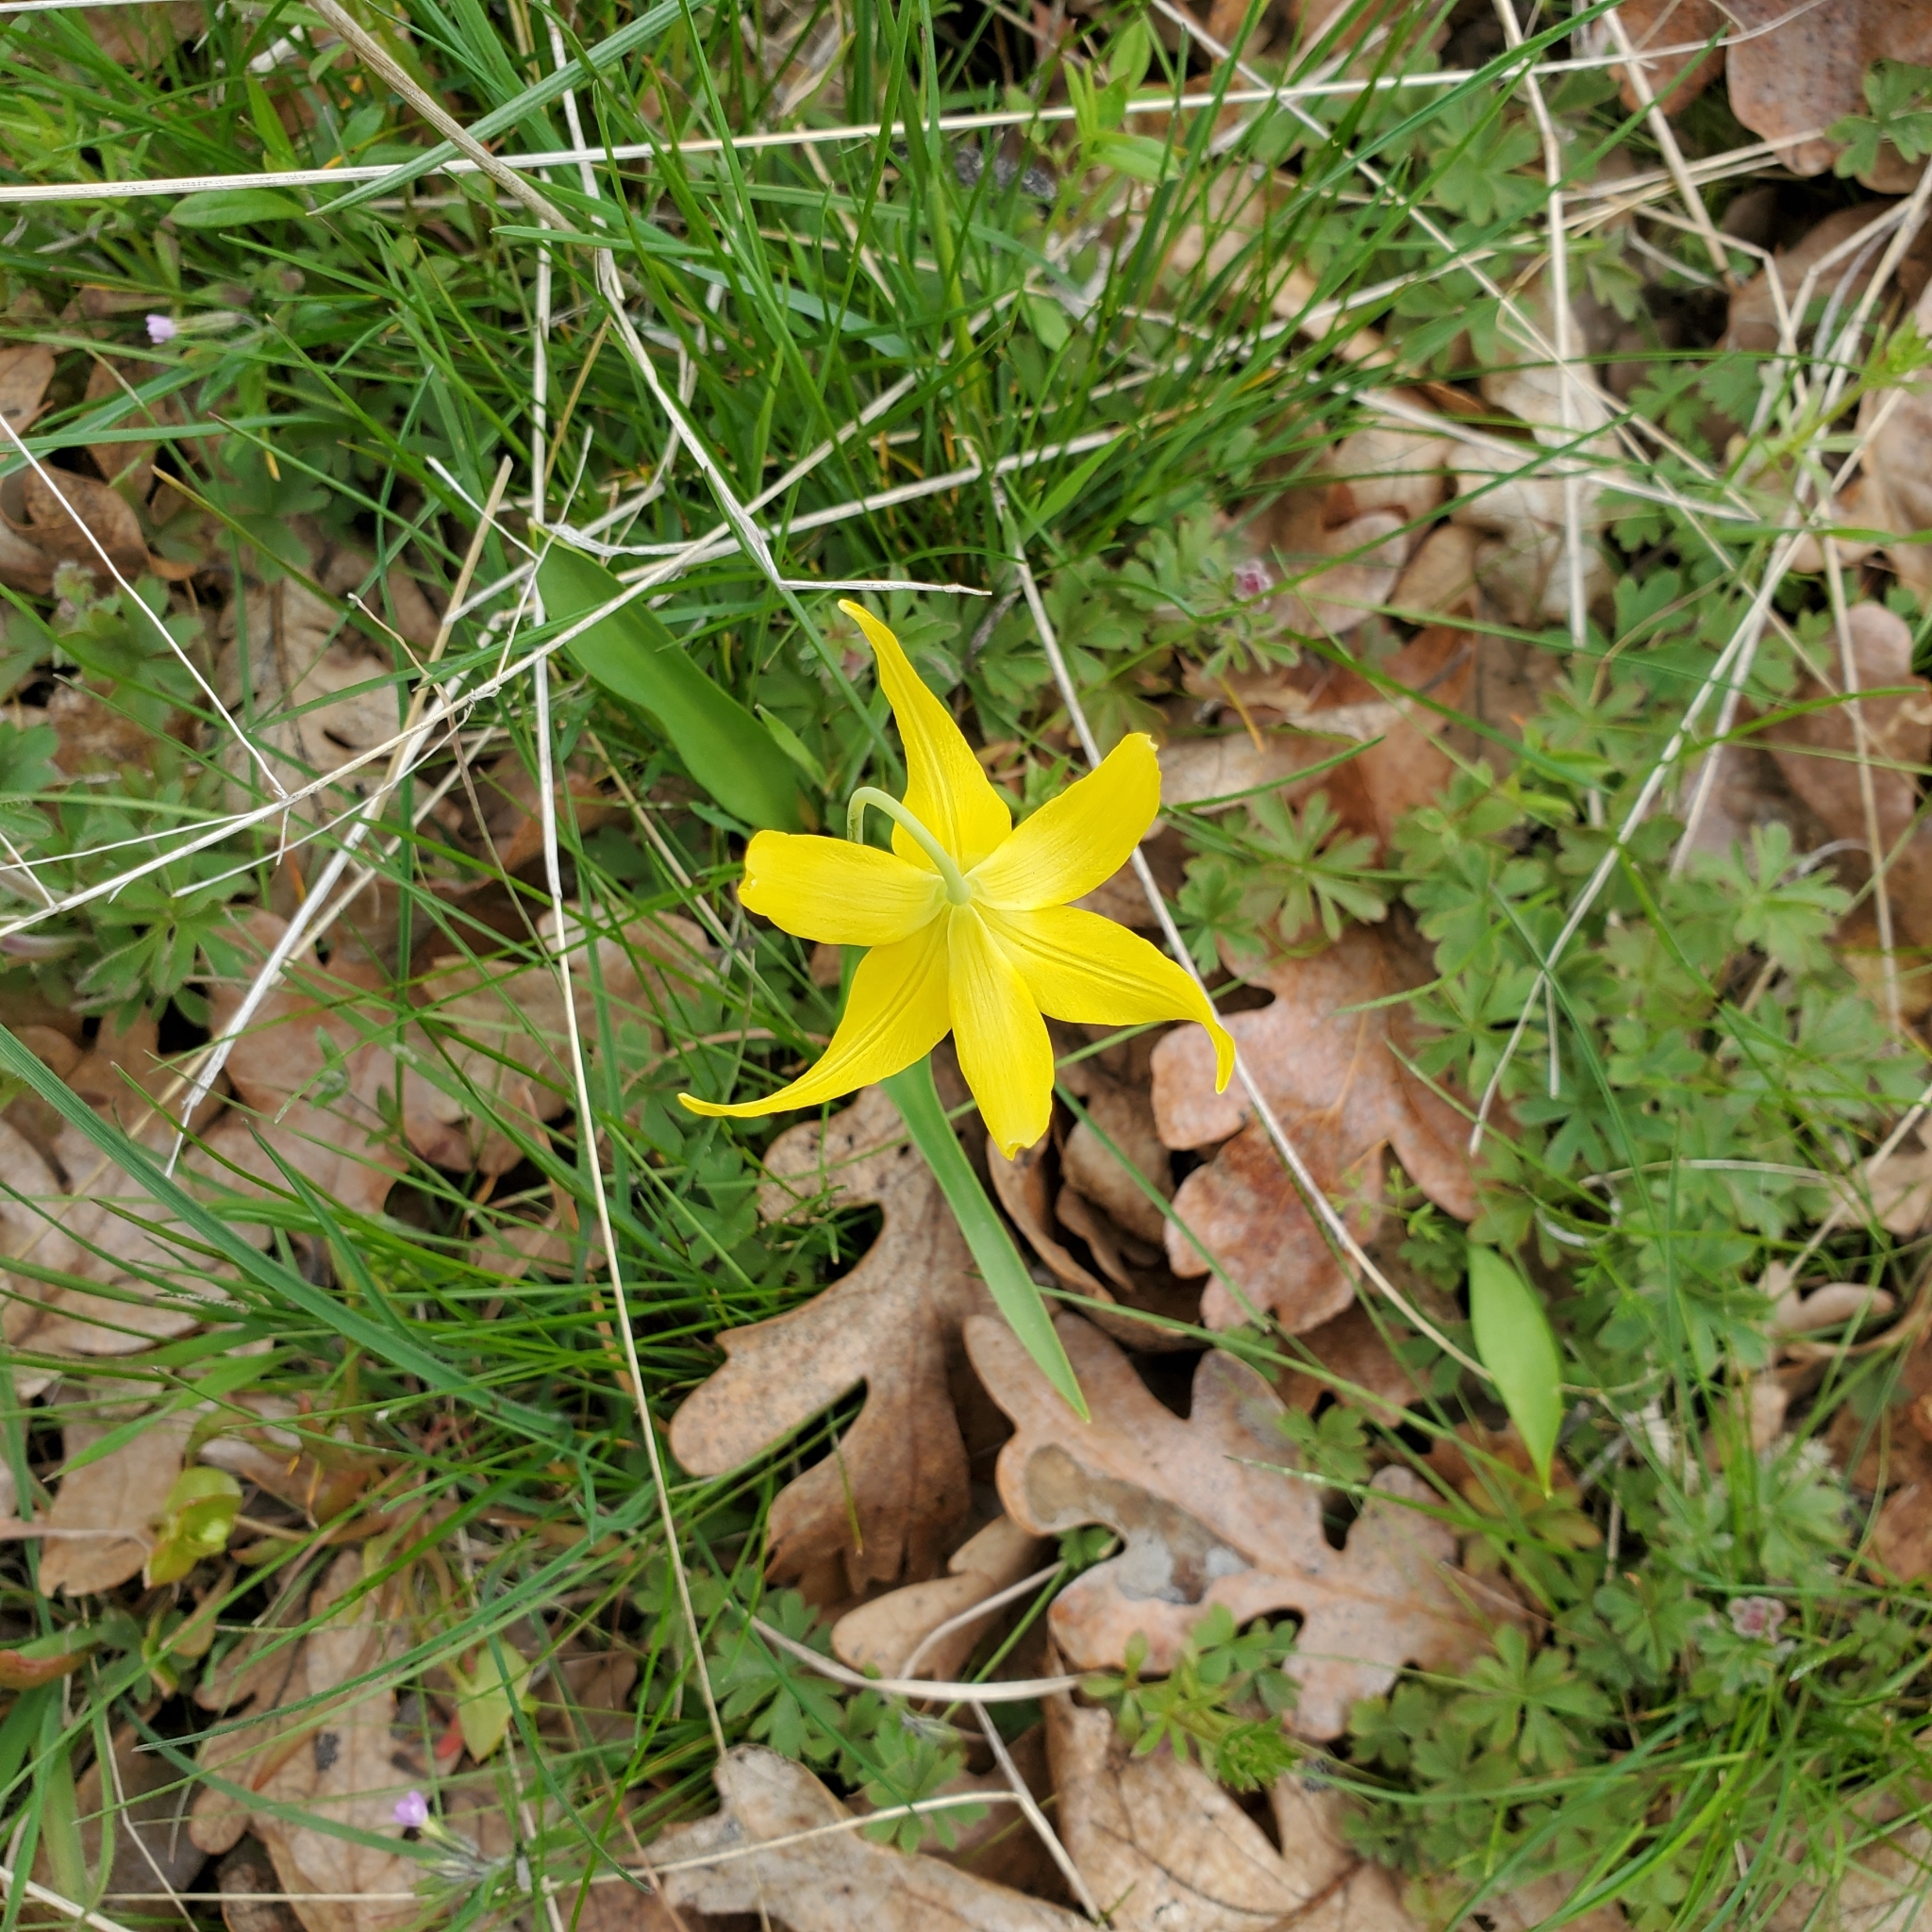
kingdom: Plantae
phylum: Tracheophyta
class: Liliopsida
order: Liliales
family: Liliaceae
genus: Erythronium
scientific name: Erythronium grandiflorum
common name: Avalanche-lily
